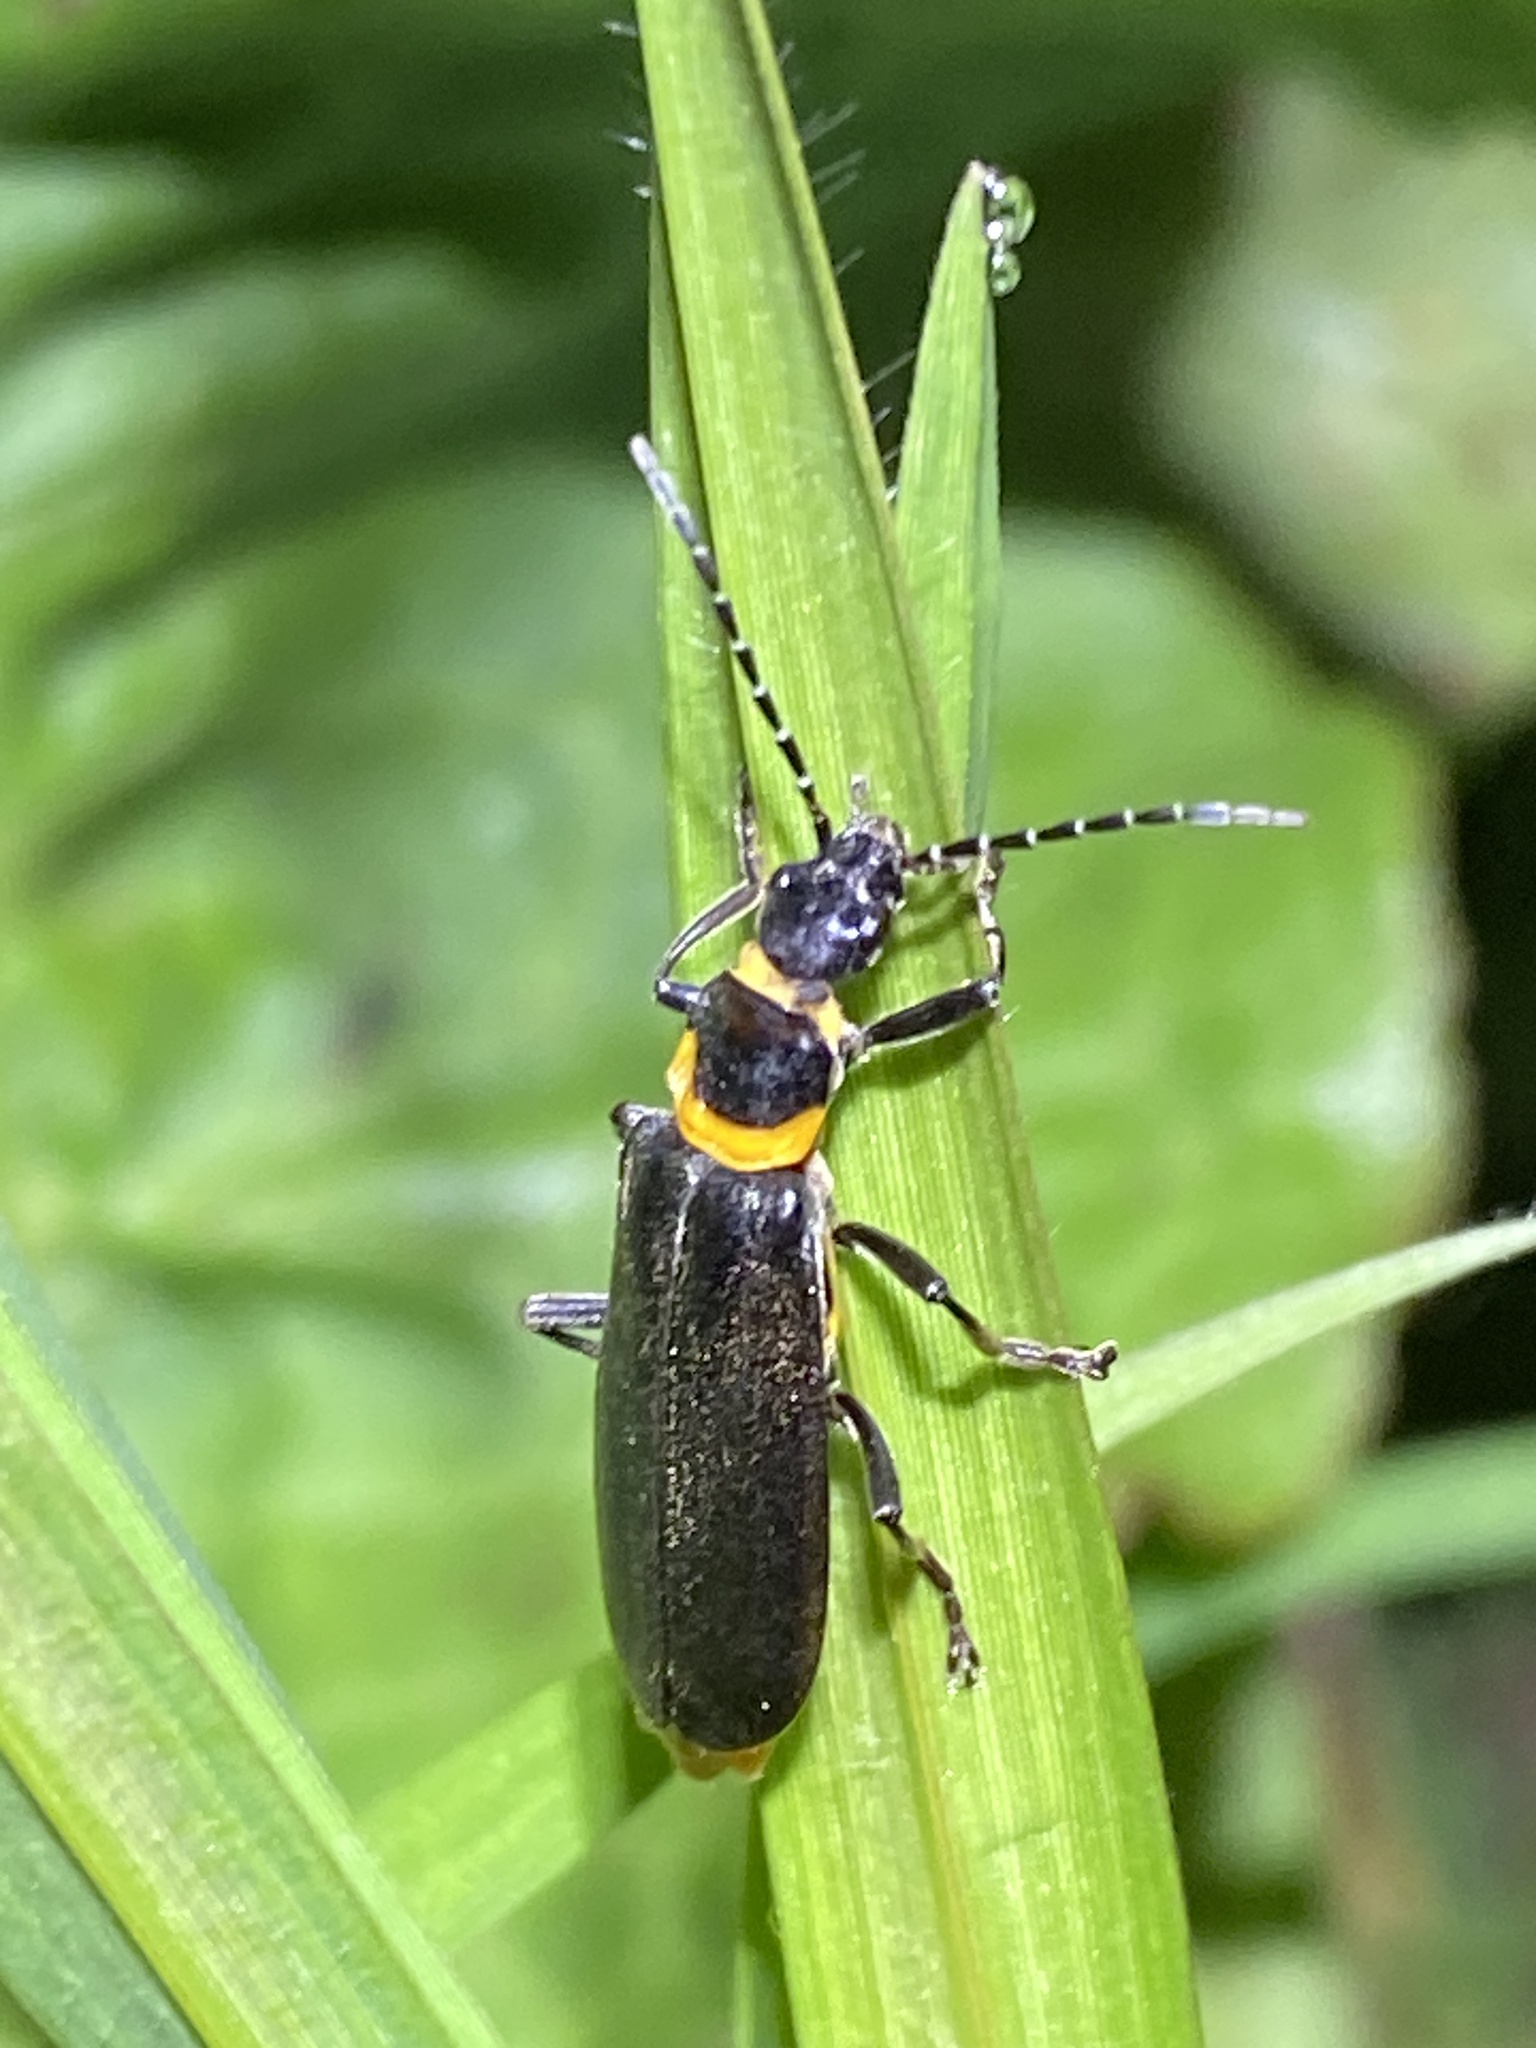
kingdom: Animalia
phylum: Arthropoda
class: Insecta
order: Coleoptera
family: Cantharidae
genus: Chauliognathus
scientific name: Chauliognathus
